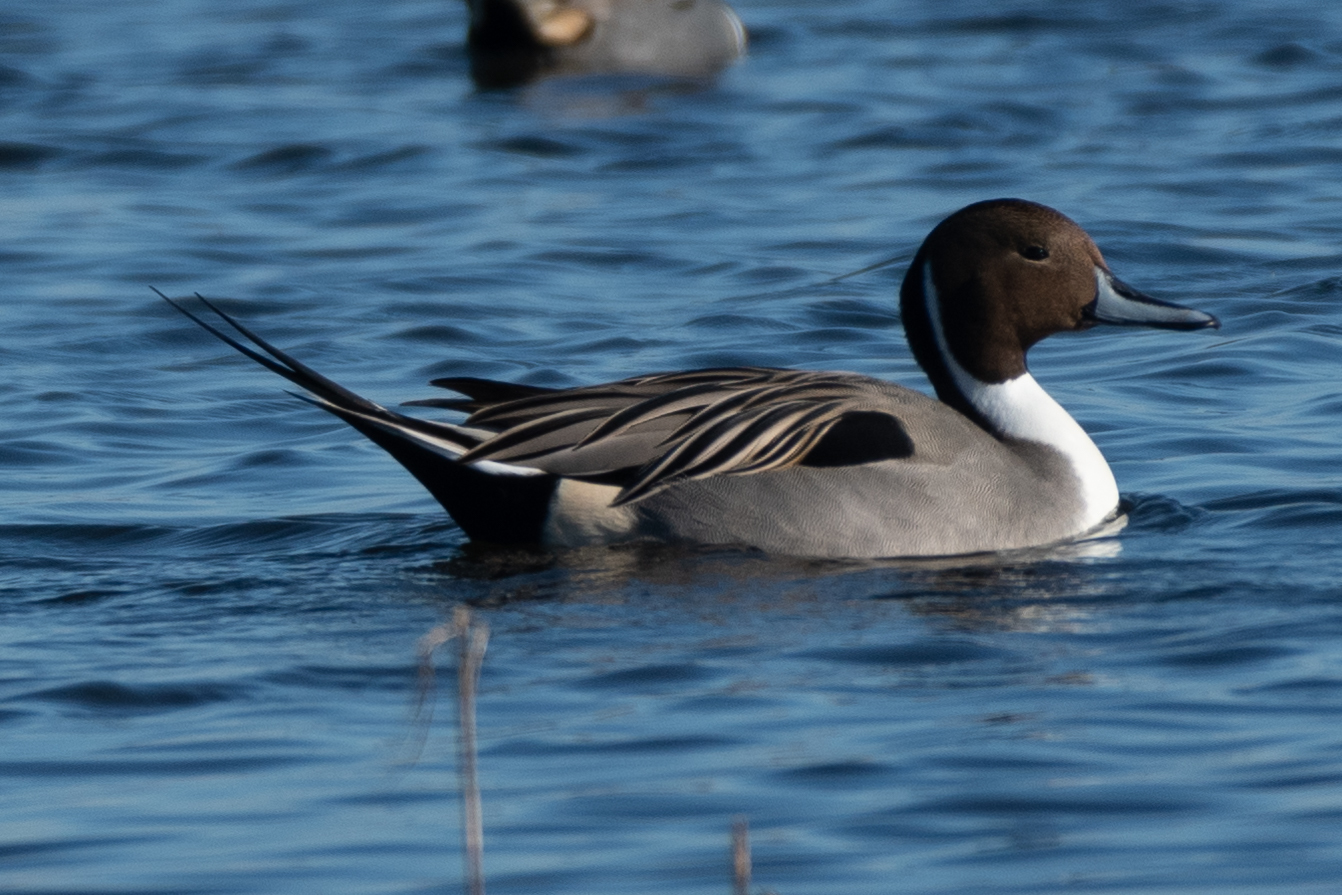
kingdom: Animalia
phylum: Chordata
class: Aves
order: Anseriformes
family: Anatidae
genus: Anas
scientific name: Anas acuta
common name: Northern pintail
